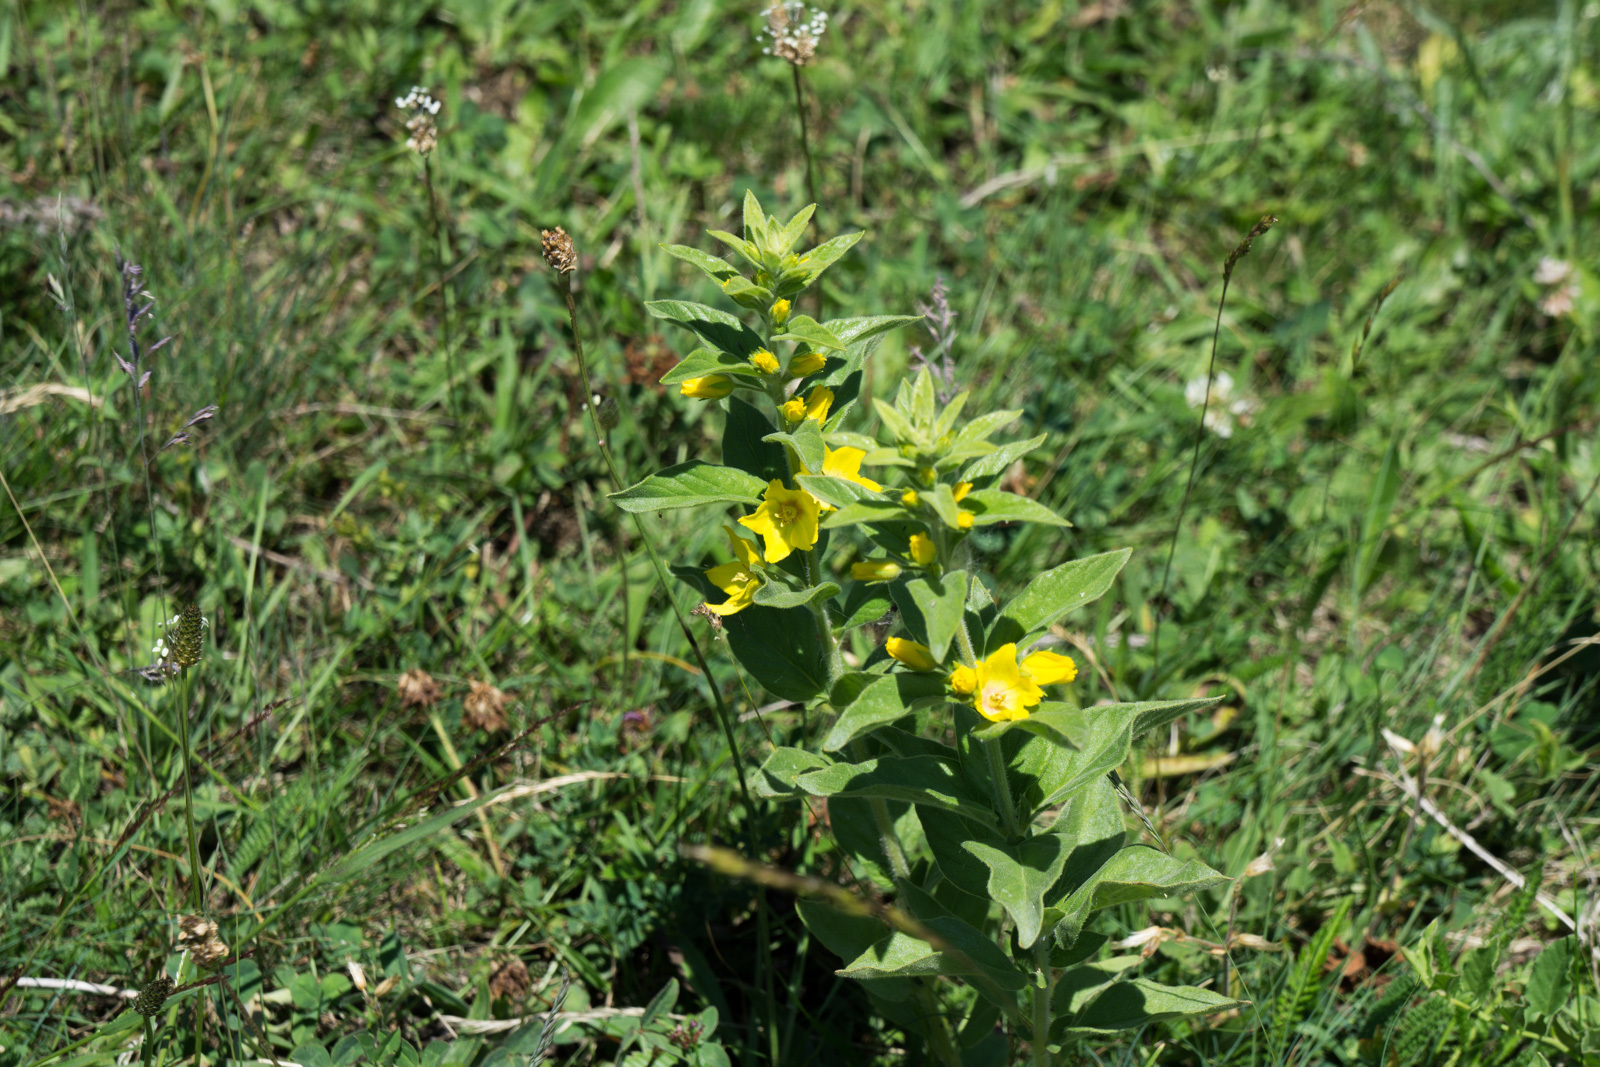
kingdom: Plantae
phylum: Tracheophyta
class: Magnoliopsida
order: Ericales
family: Primulaceae
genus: Lysimachia
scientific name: Lysimachia punctata
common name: Dotted loosestrife
